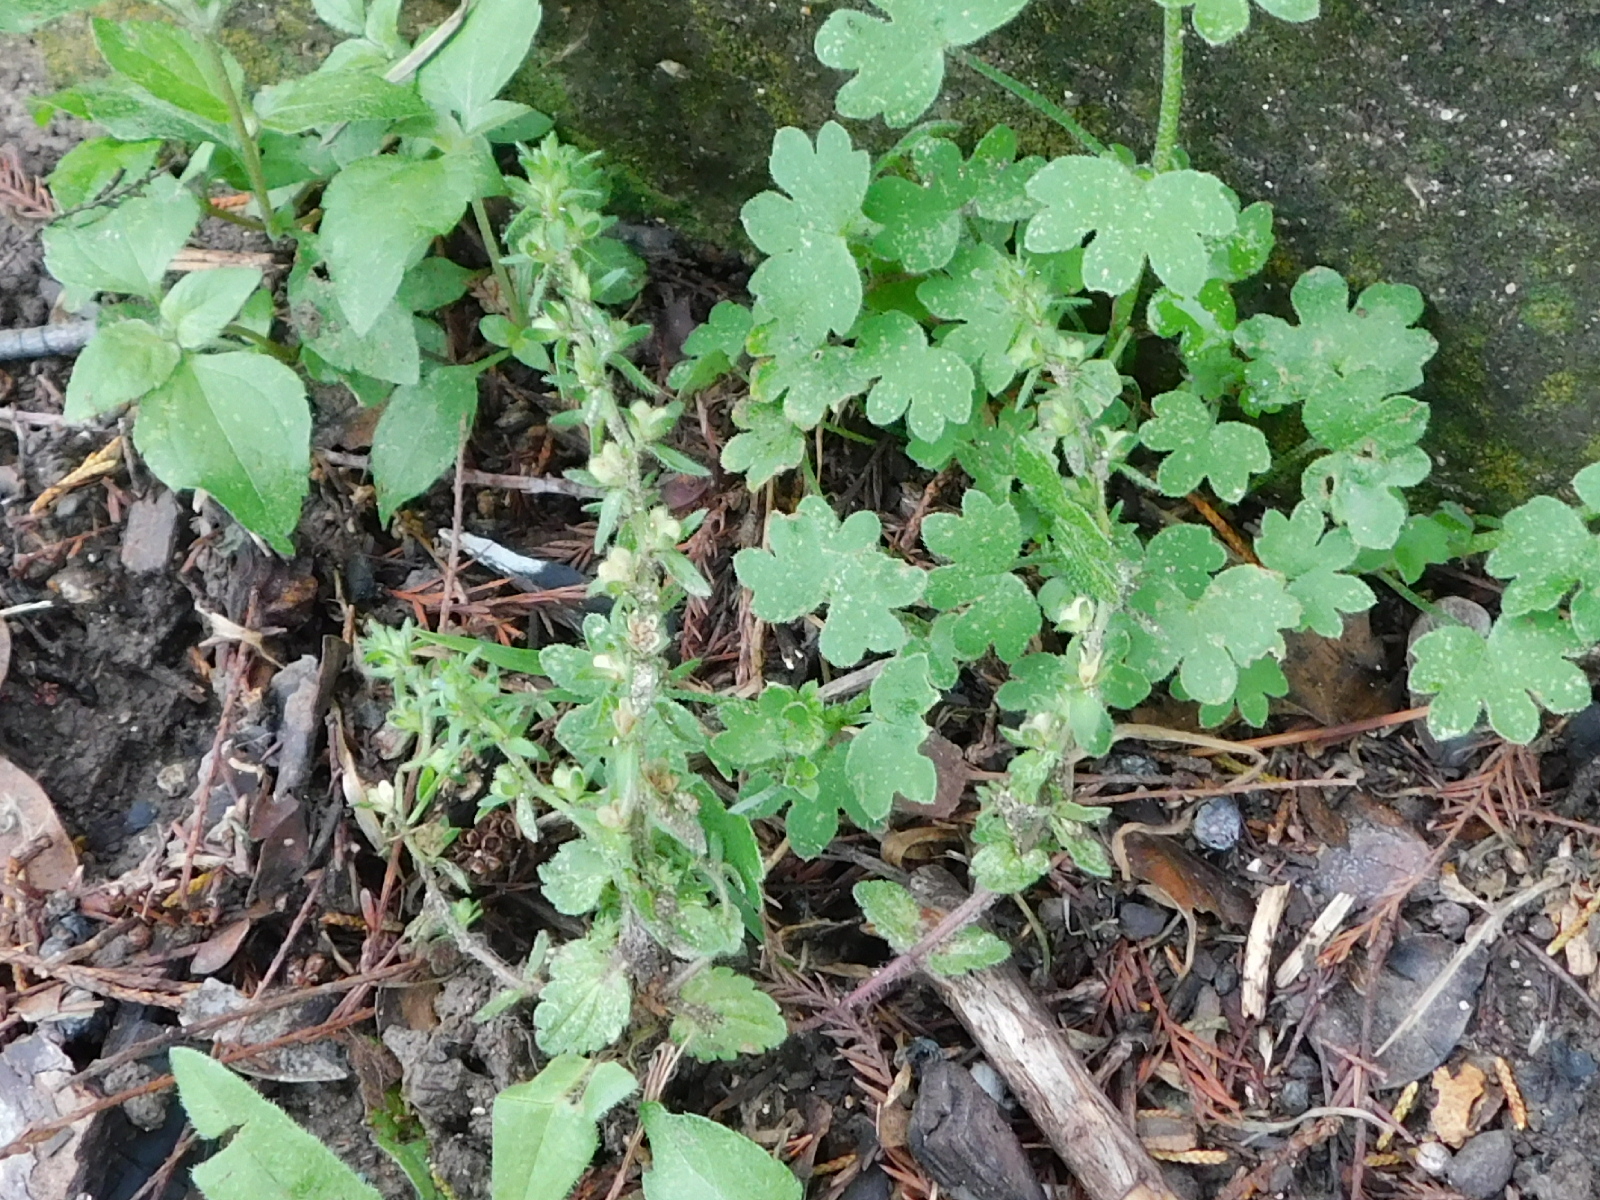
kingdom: Plantae
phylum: Tracheophyta
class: Magnoliopsida
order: Lamiales
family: Plantaginaceae
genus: Veronica
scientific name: Veronica arvensis
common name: Corn speedwell
